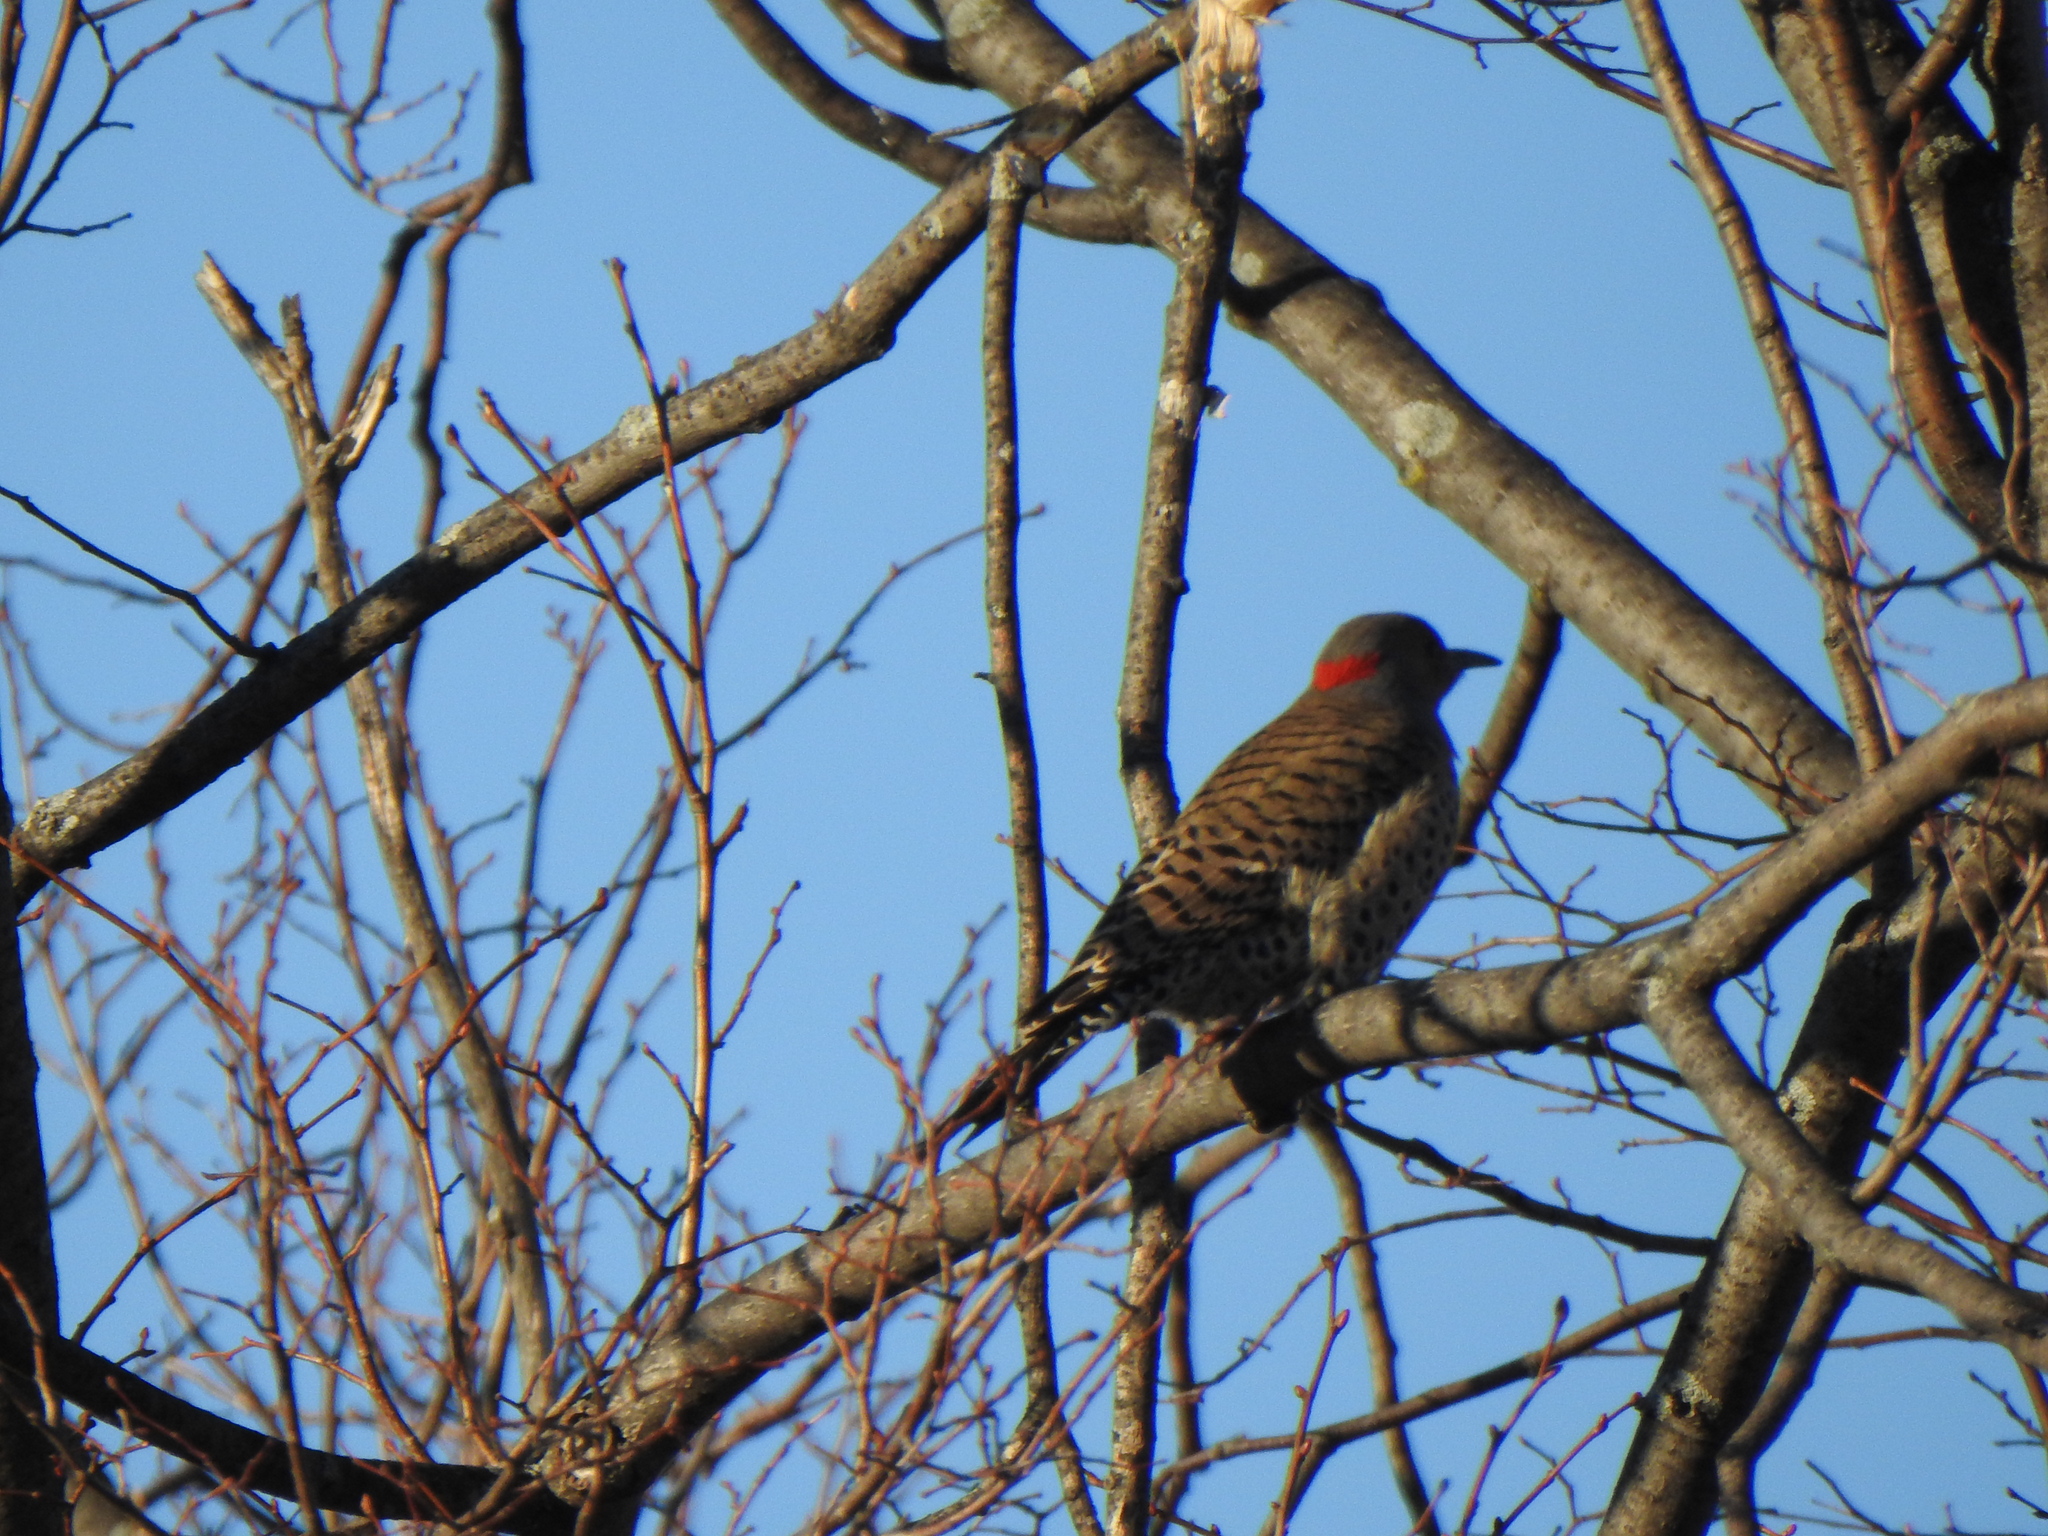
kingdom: Animalia
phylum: Chordata
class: Aves
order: Piciformes
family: Picidae
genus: Colaptes
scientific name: Colaptes auratus
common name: Northern flicker
